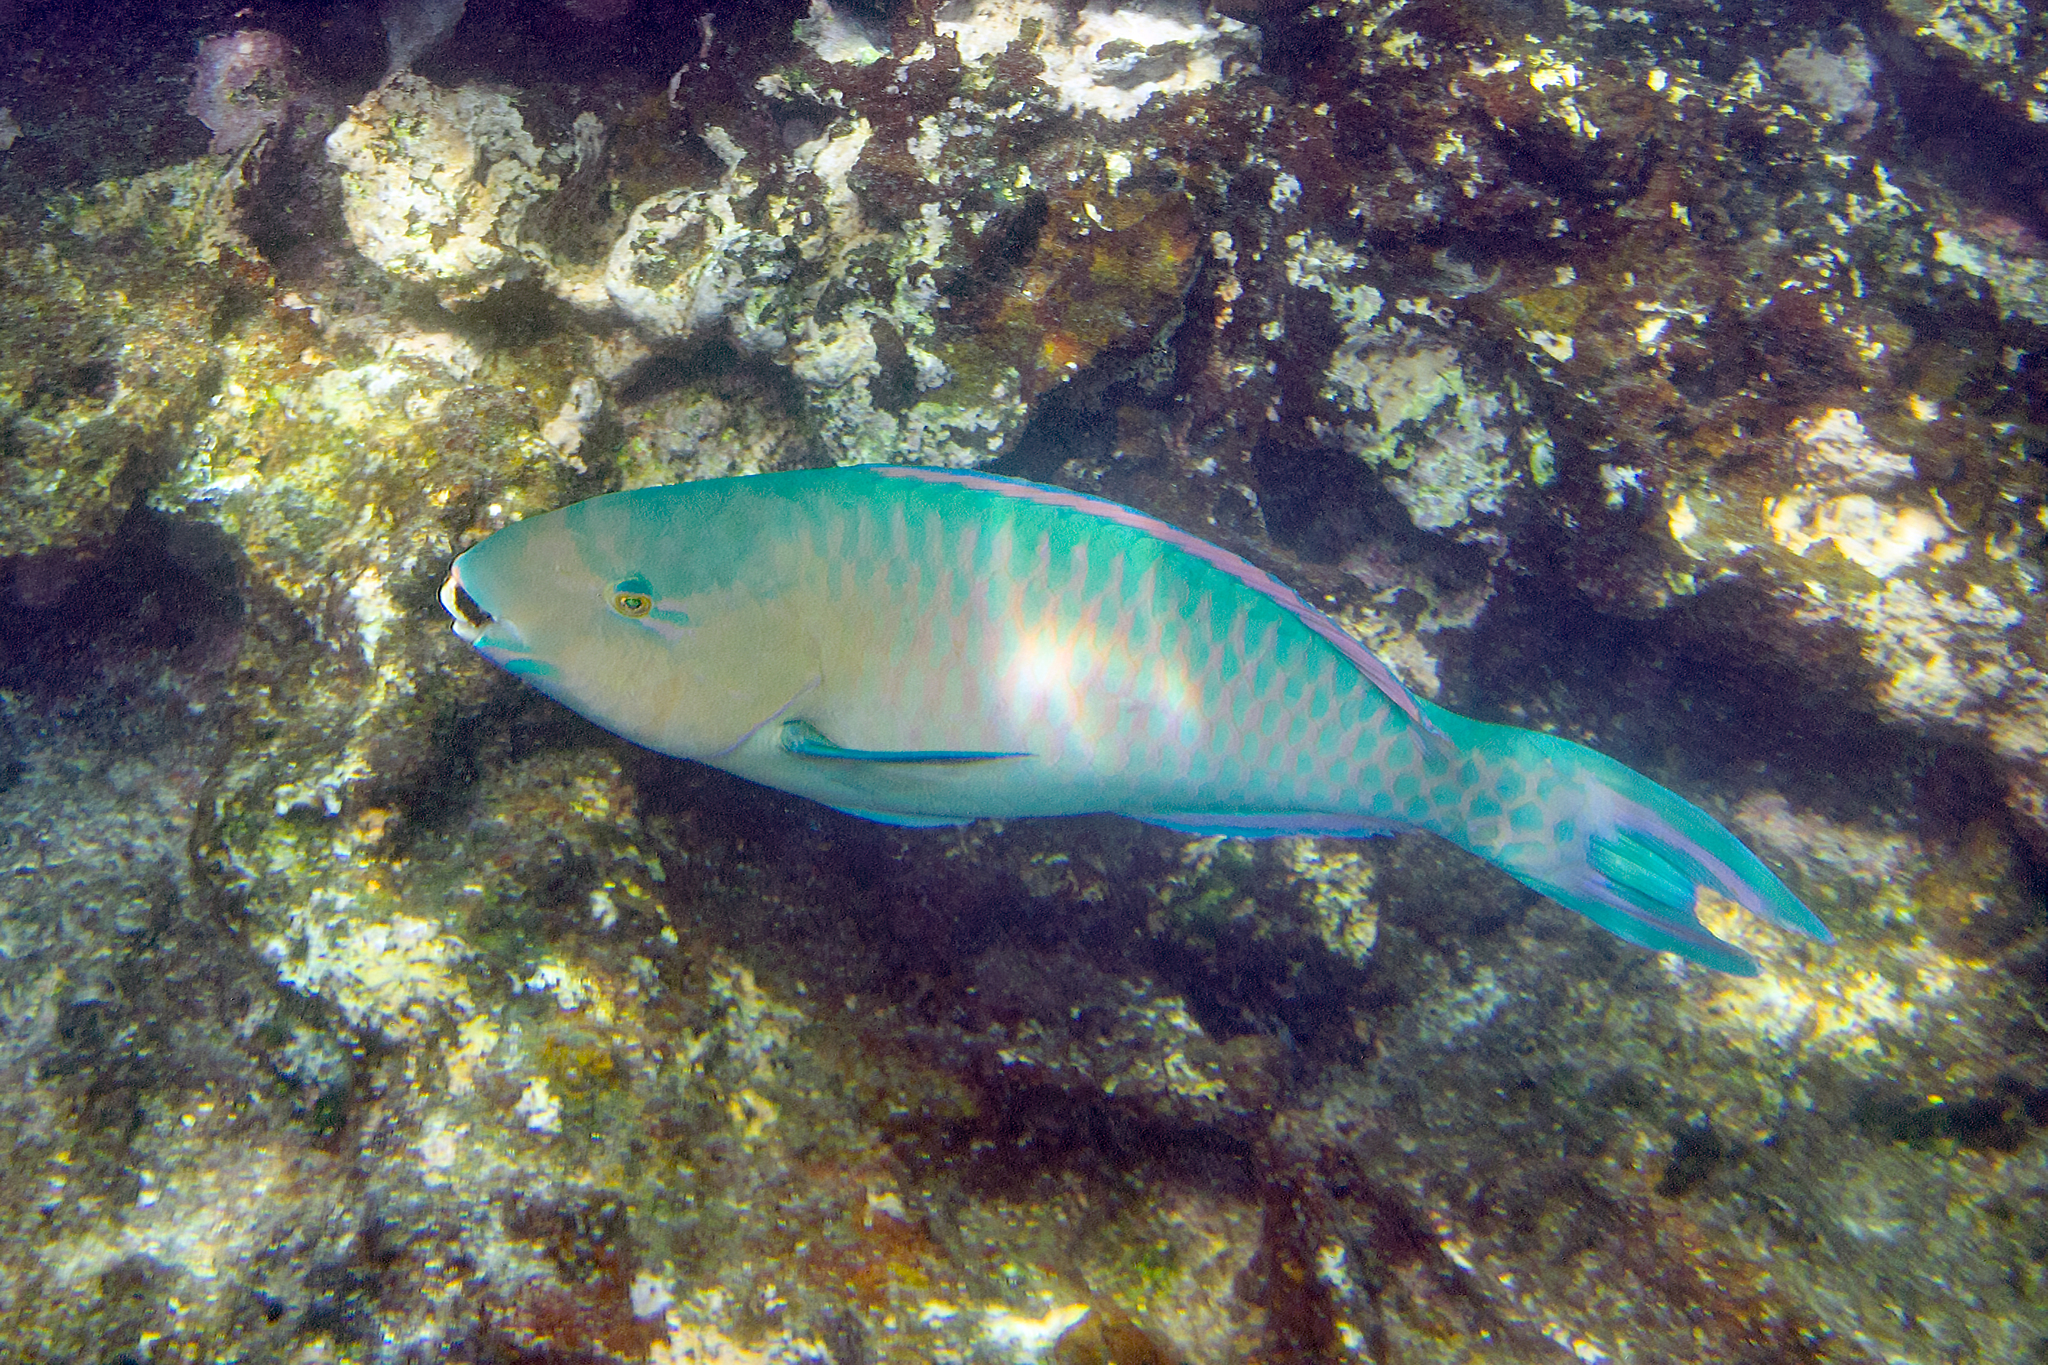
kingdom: Animalia
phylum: Chordata
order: Perciformes
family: Scaridae
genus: Scarus
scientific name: Scarus ghobban
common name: Blue-barred parrotfish
